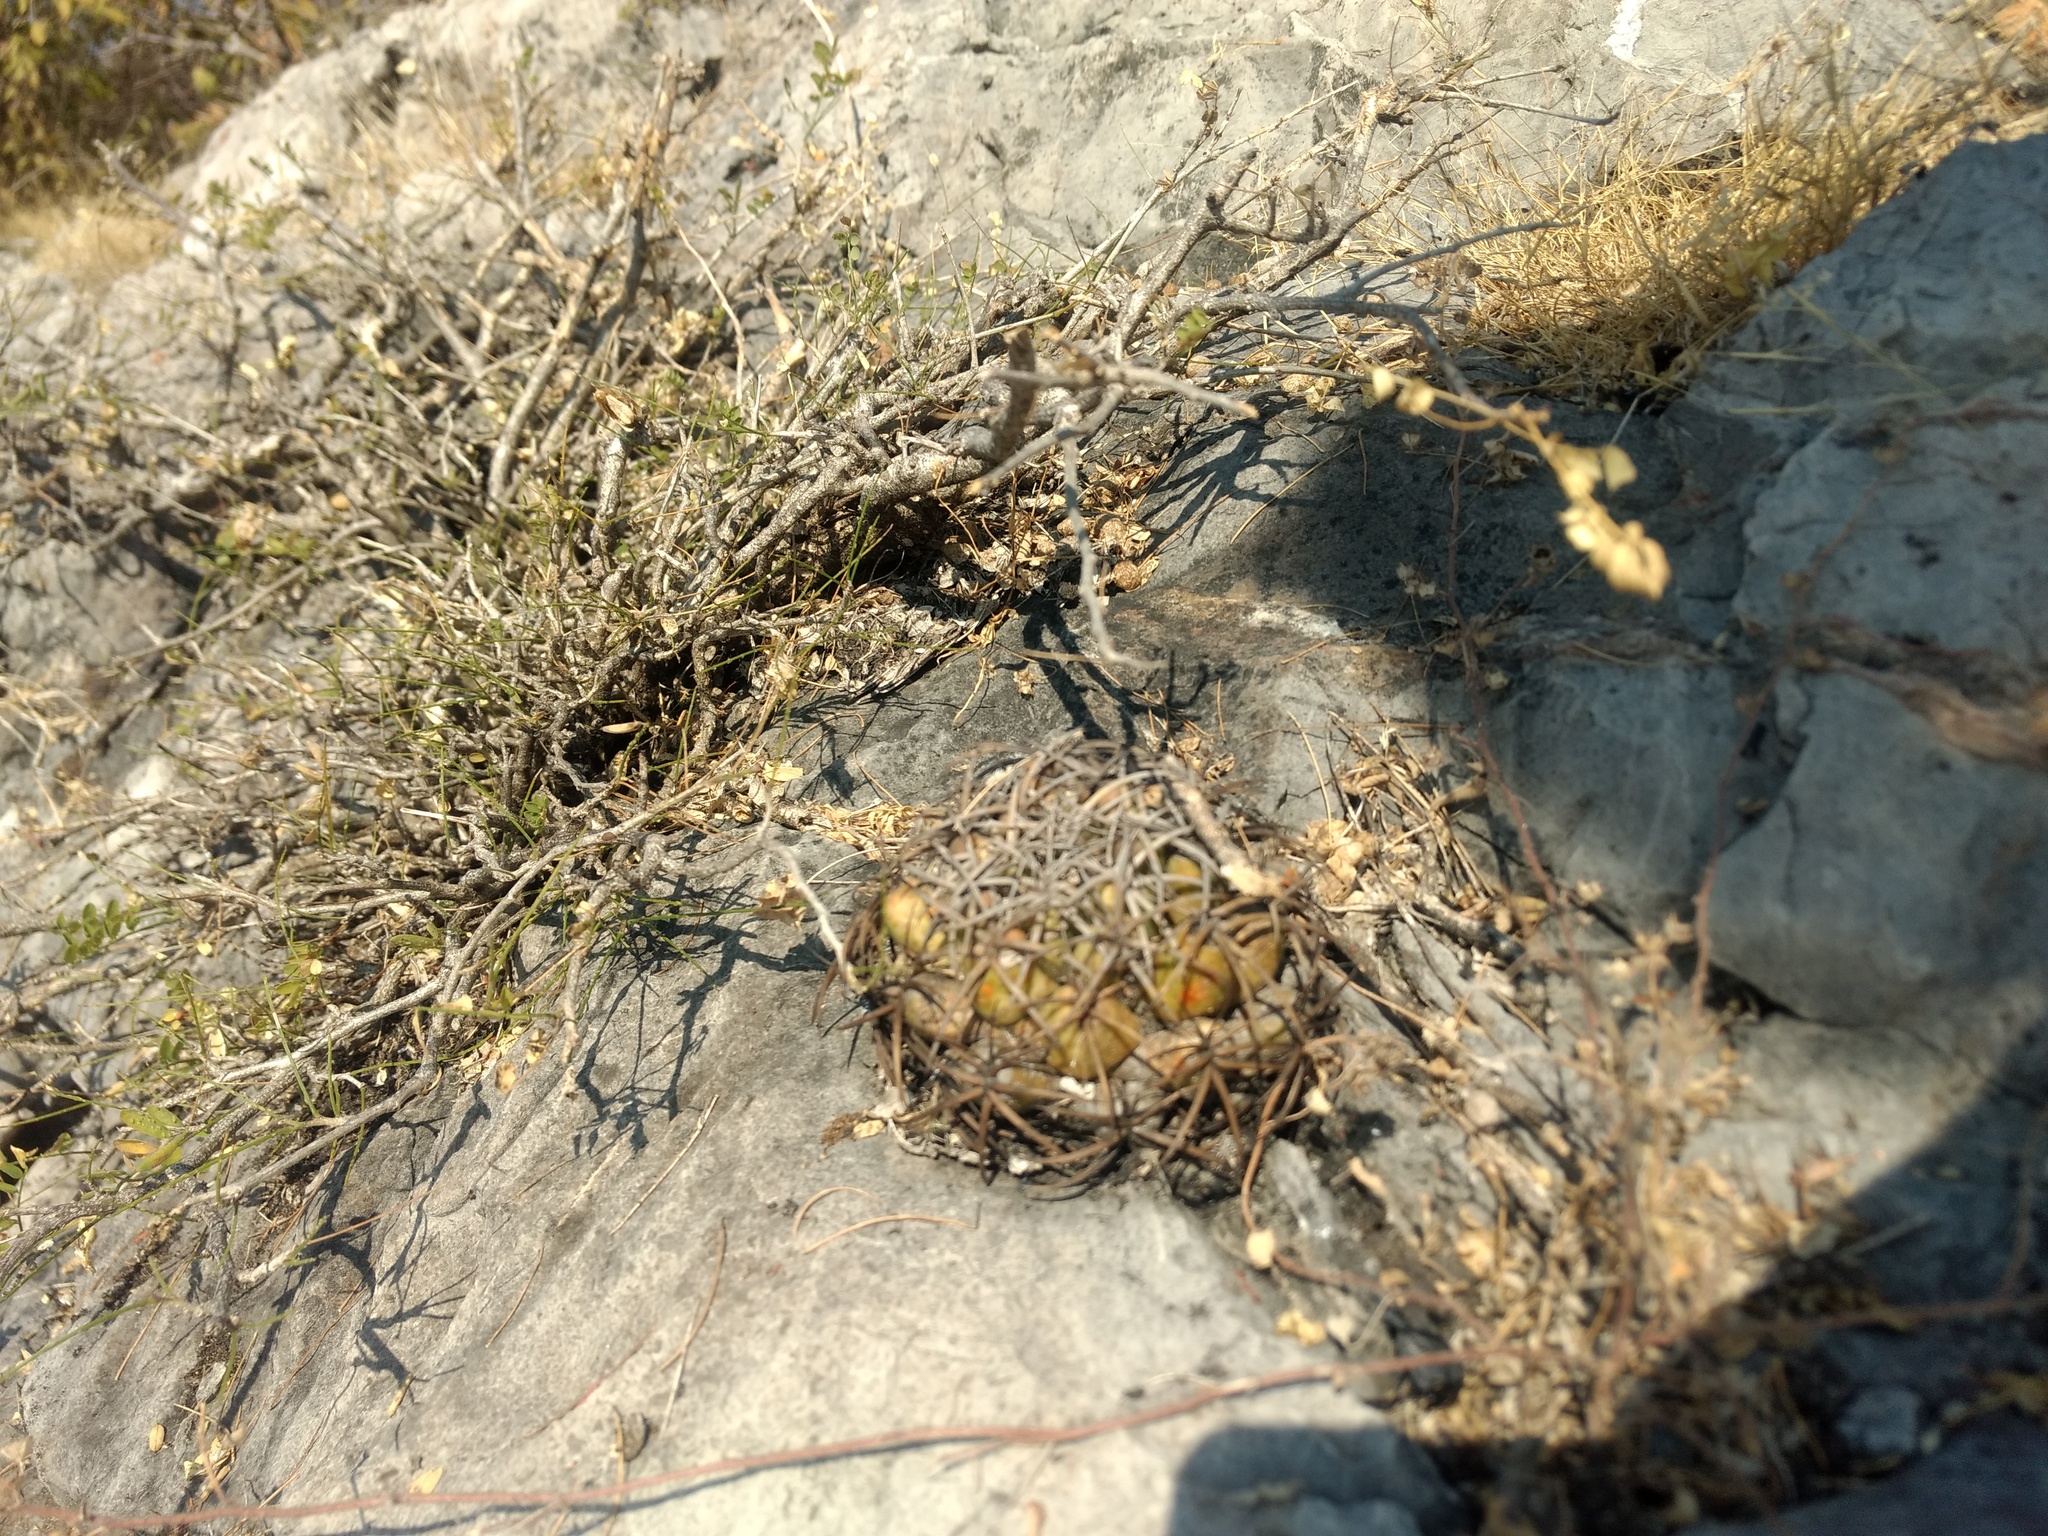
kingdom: Plantae
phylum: Tracheophyta
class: Magnoliopsida
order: Caryophyllales
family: Cactaceae
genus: Coryphantha
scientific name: Coryphantha elephantidens
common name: Elephant's tooth
